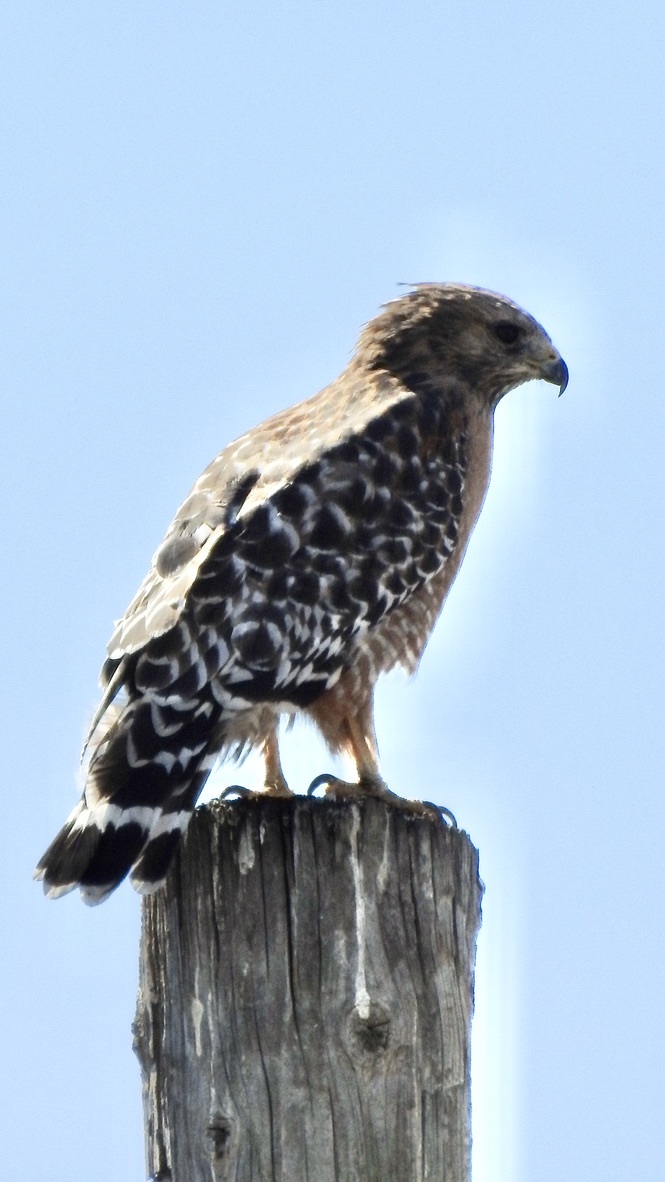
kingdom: Animalia
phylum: Chordata
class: Aves
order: Accipitriformes
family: Accipitridae
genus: Buteo
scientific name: Buteo lineatus
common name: Red-shouldered hawk
